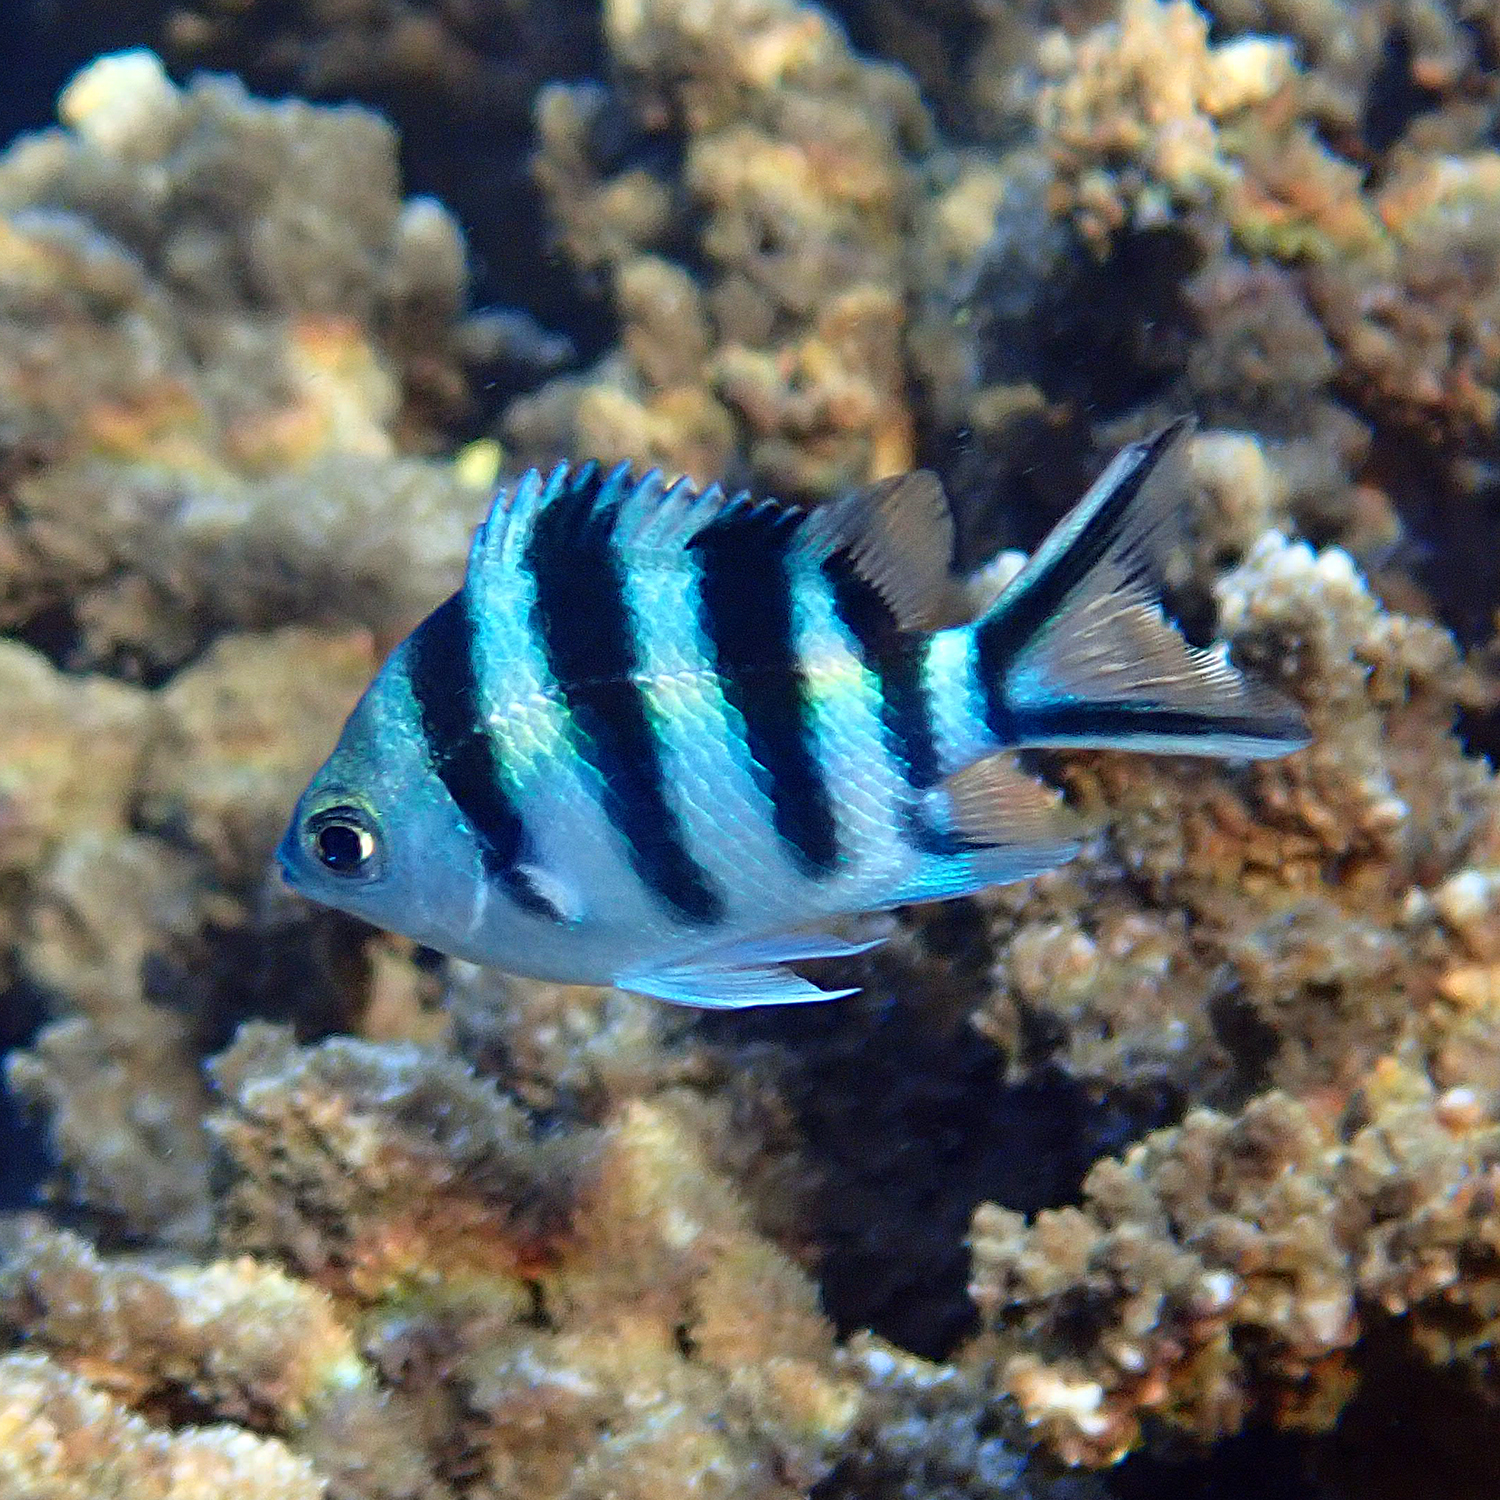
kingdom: Animalia
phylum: Chordata
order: Perciformes
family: Pomacentridae
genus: Abudefduf
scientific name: Abudefduf sexfasciatus
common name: Scissortail sergeant
